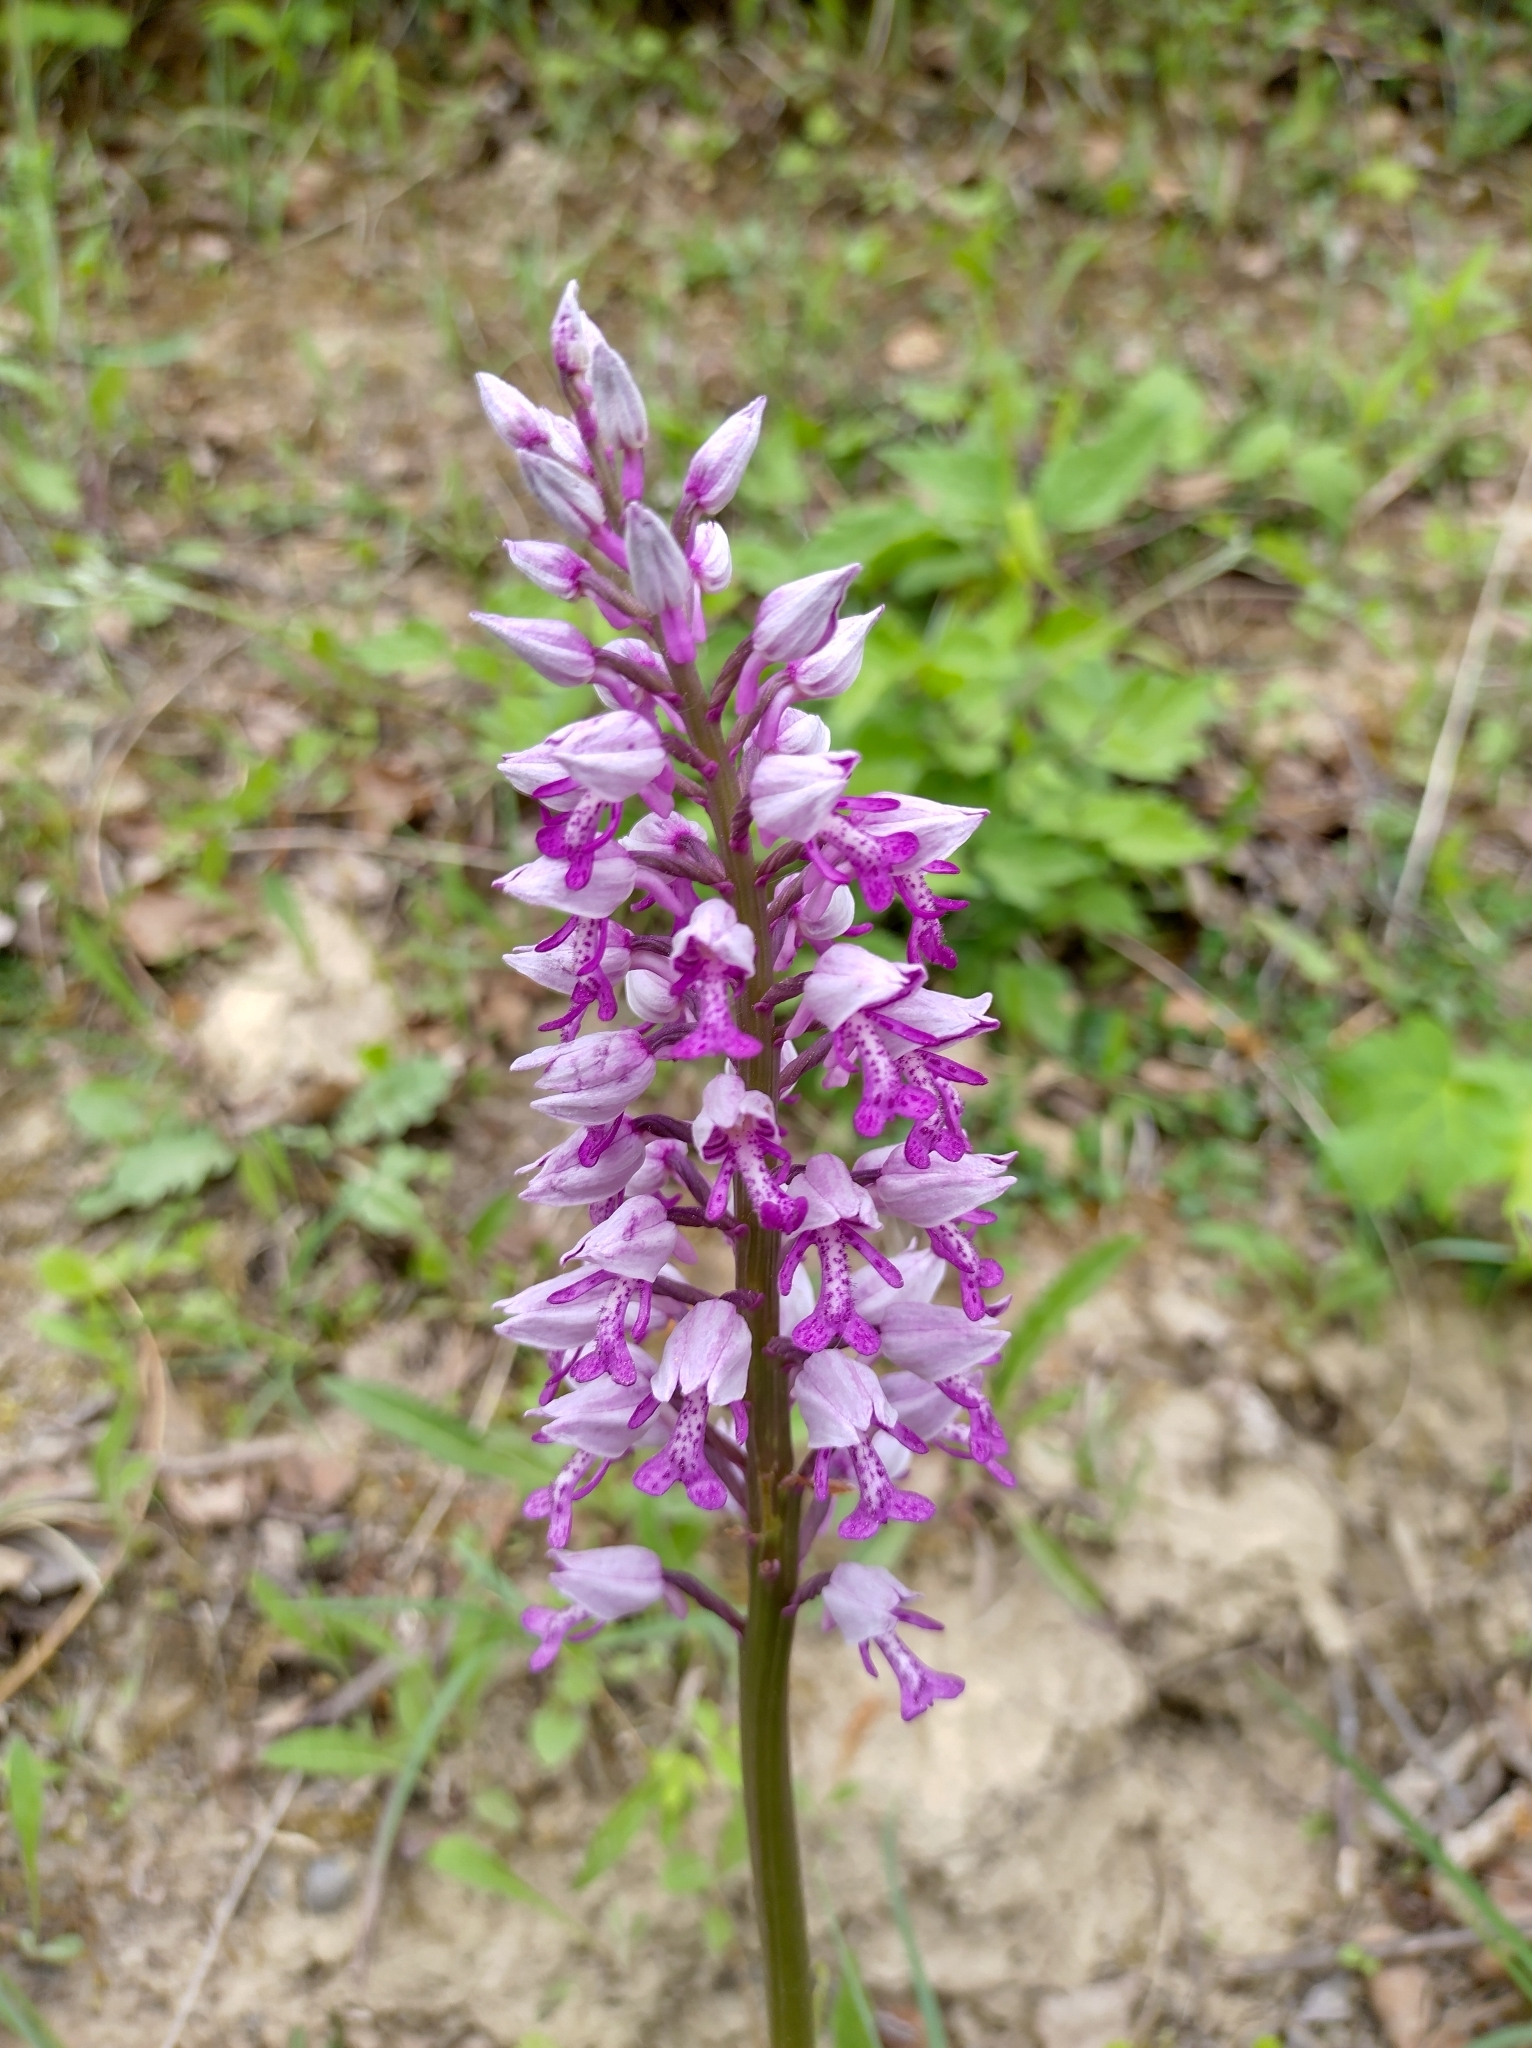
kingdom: Plantae
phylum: Tracheophyta
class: Liliopsida
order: Asparagales
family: Orchidaceae
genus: Orchis
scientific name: Orchis militaris
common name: Military orchid
